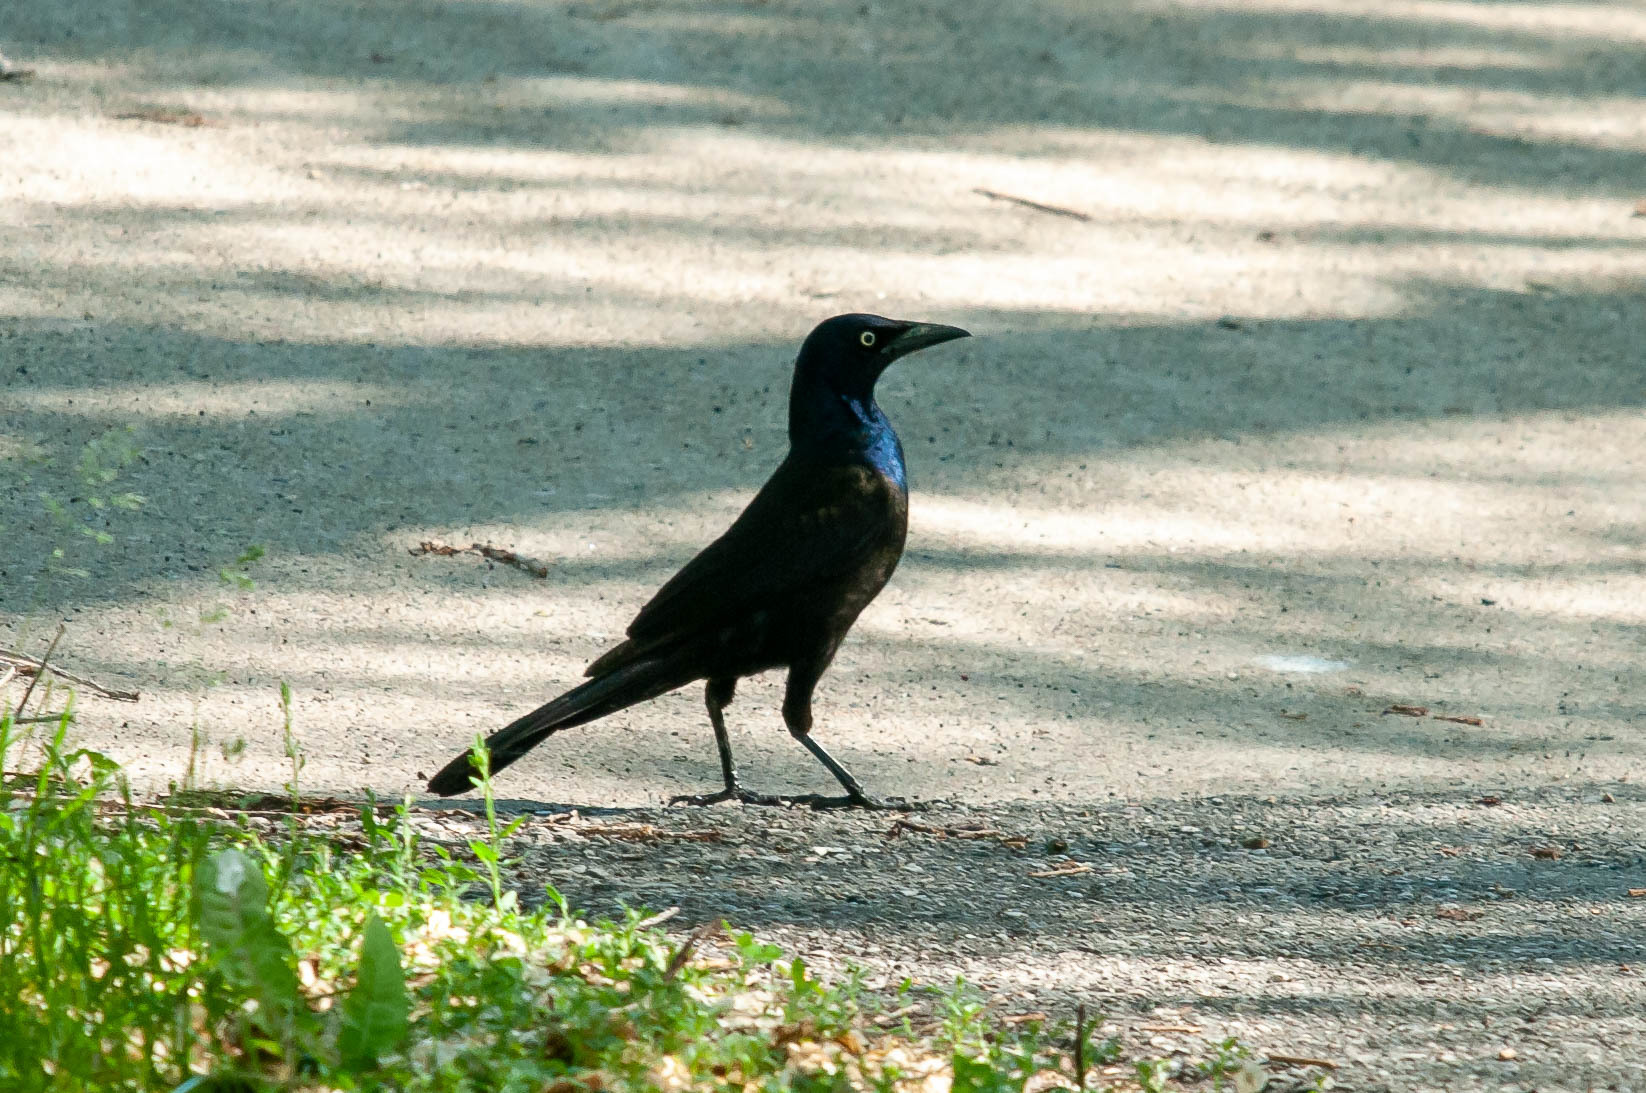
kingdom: Animalia
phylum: Chordata
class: Aves
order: Passeriformes
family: Icteridae
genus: Quiscalus
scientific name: Quiscalus quiscula
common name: Common grackle
